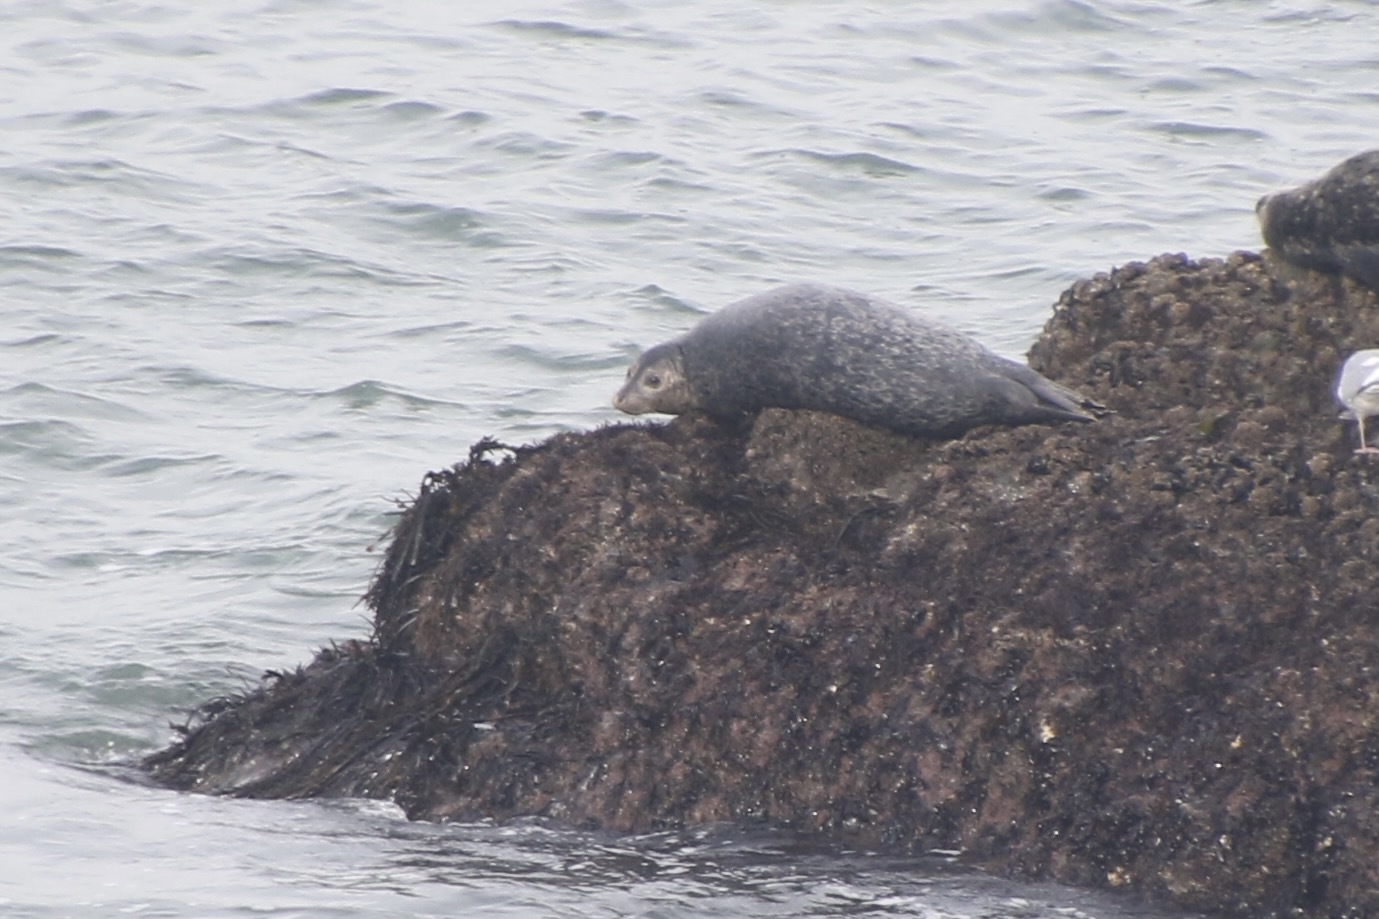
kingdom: Animalia
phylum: Chordata
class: Mammalia
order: Carnivora
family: Phocidae
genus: Phoca
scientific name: Phoca vitulina
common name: Harbor seal
